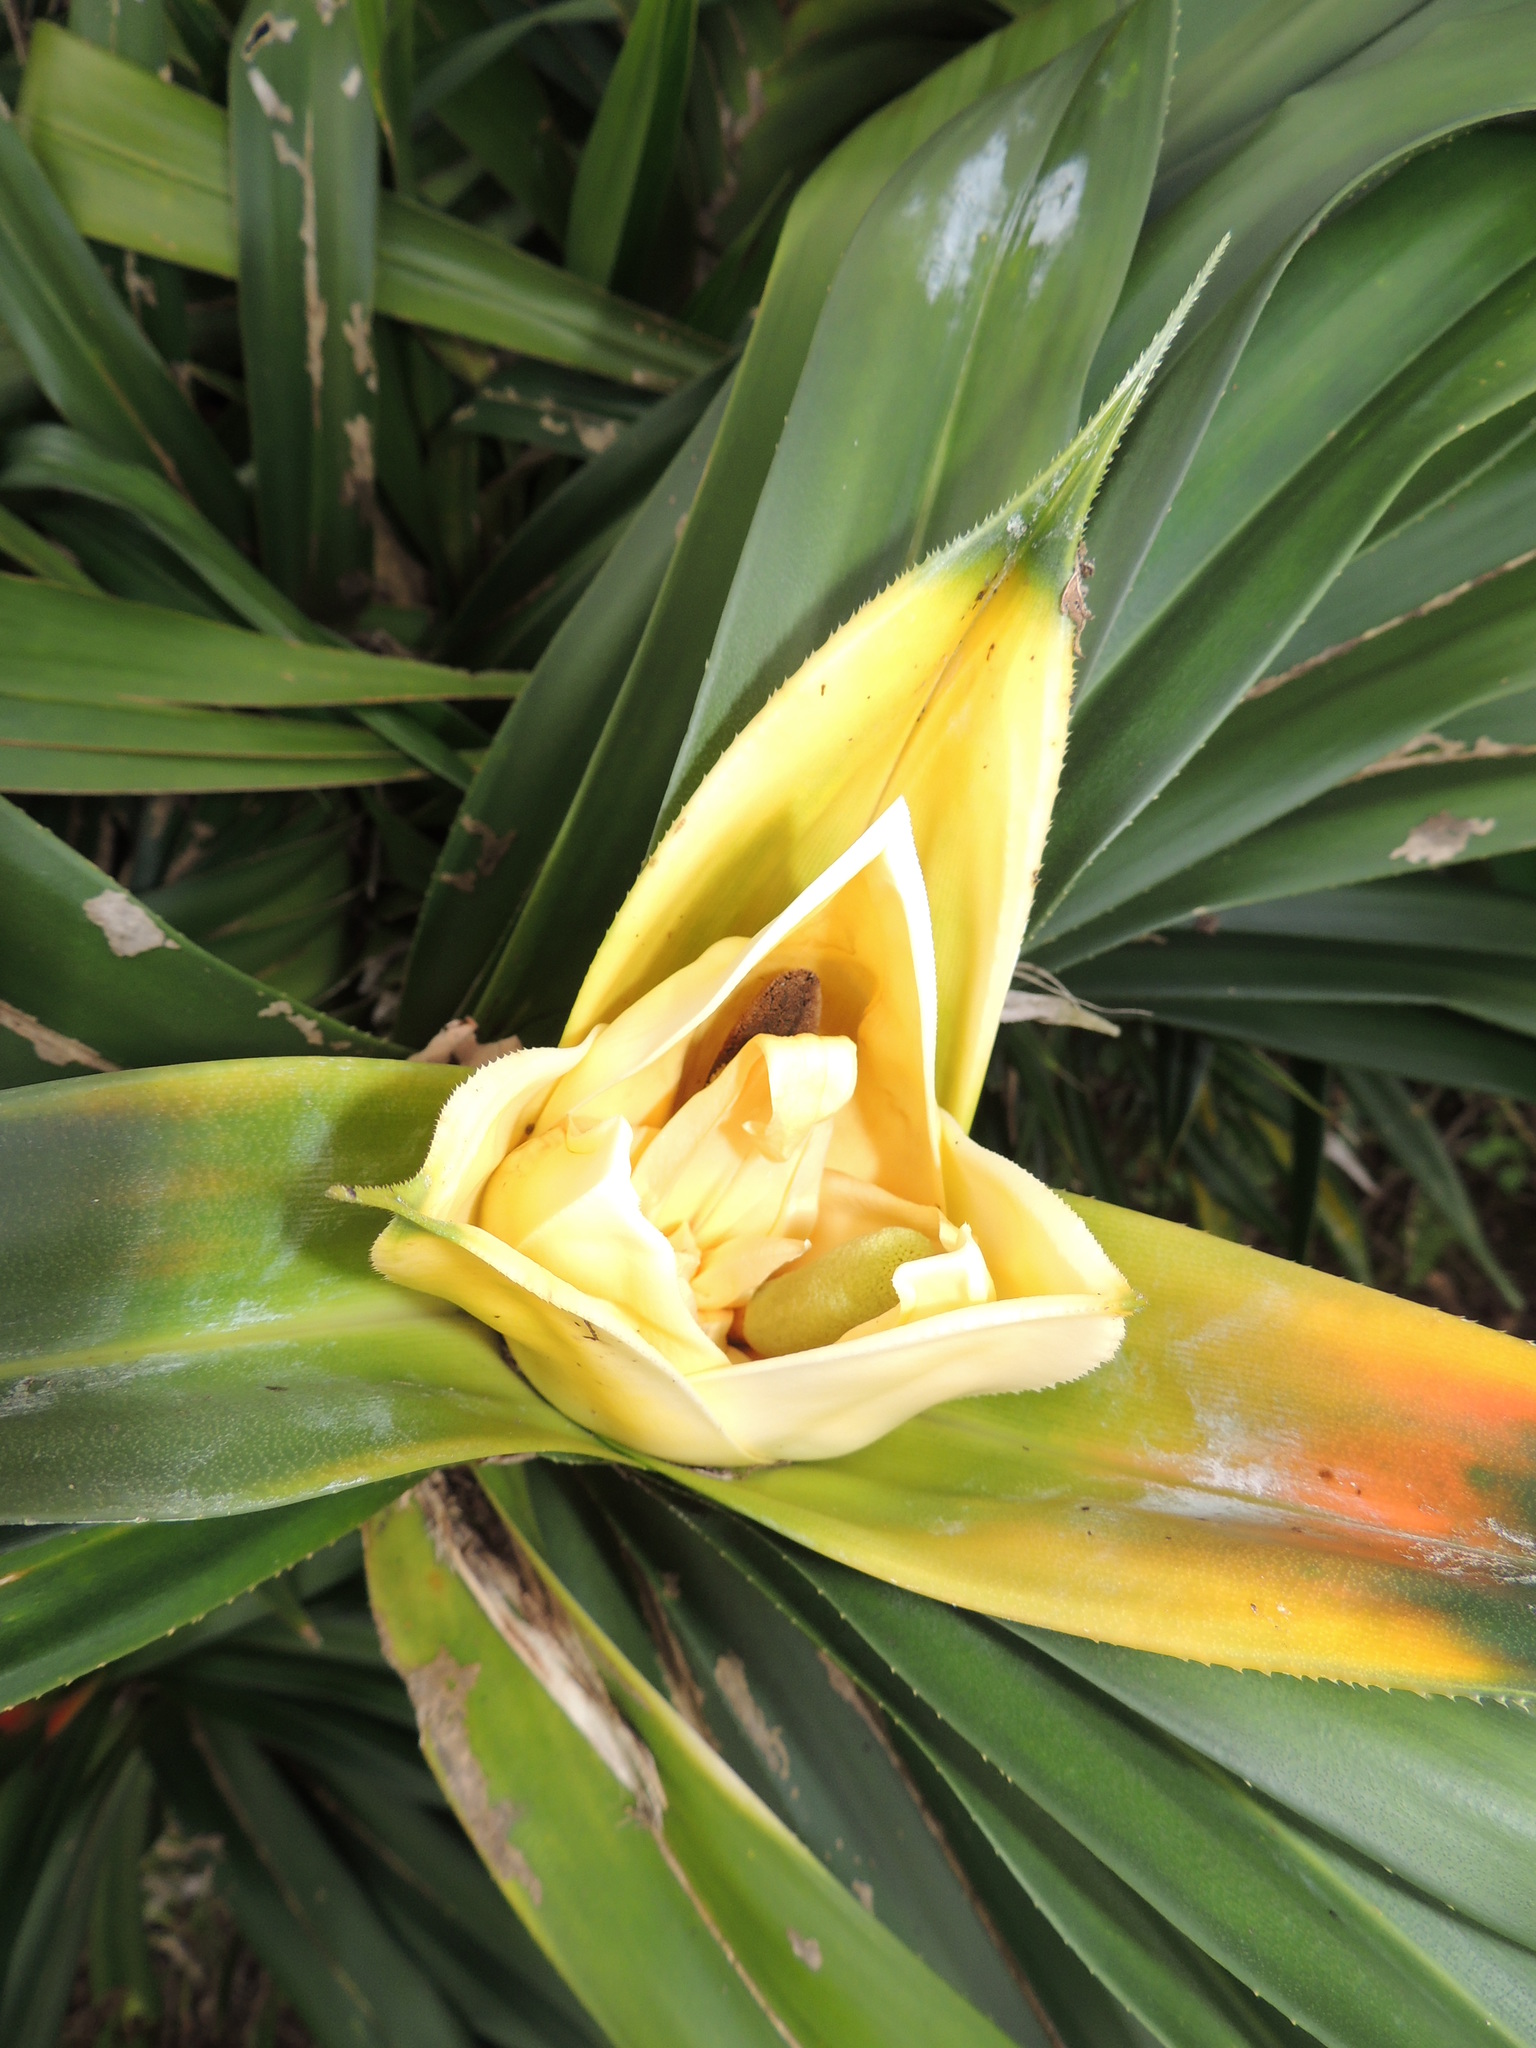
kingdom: Plantae
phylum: Tracheophyta
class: Liliopsida
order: Pandanales
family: Pandanaceae
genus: Freycinetia
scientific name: Freycinetia reineckei
